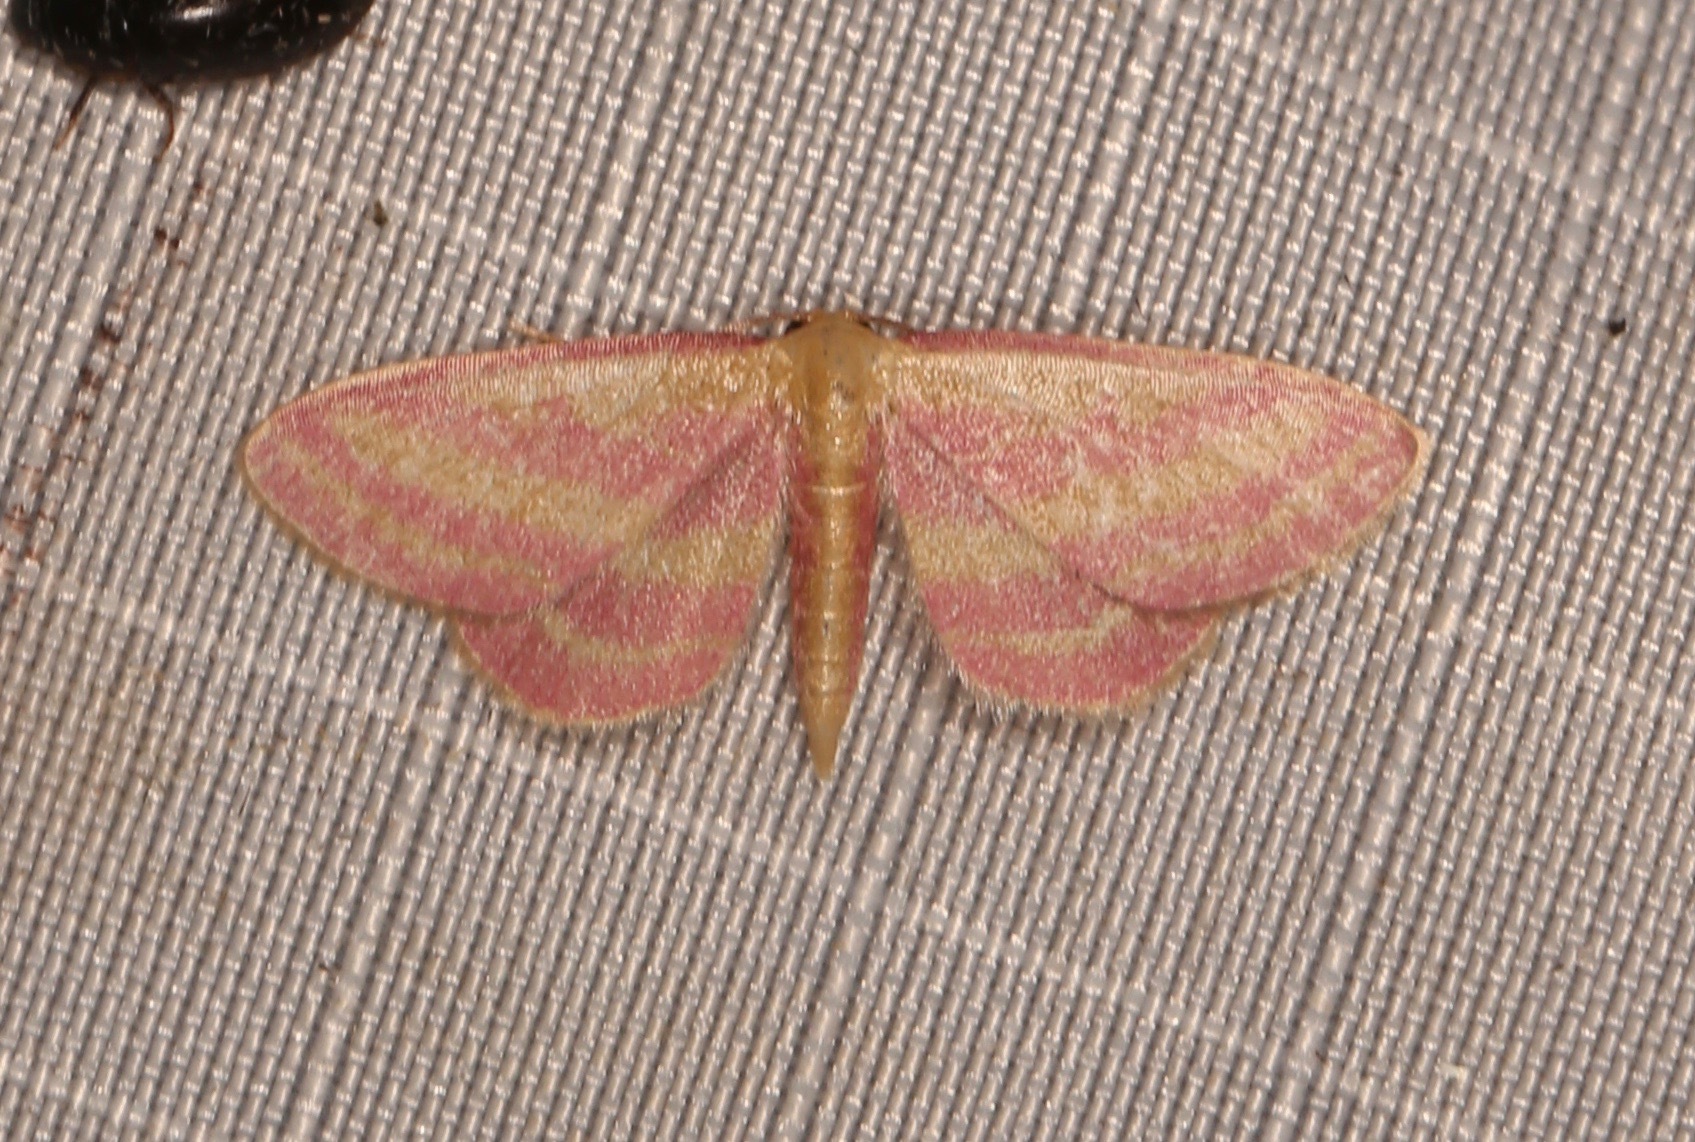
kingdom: Animalia
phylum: Arthropoda
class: Insecta
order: Lepidoptera
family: Geometridae
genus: Leptostales
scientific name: Leptostales laevitaria
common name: Raspberry wave moth
